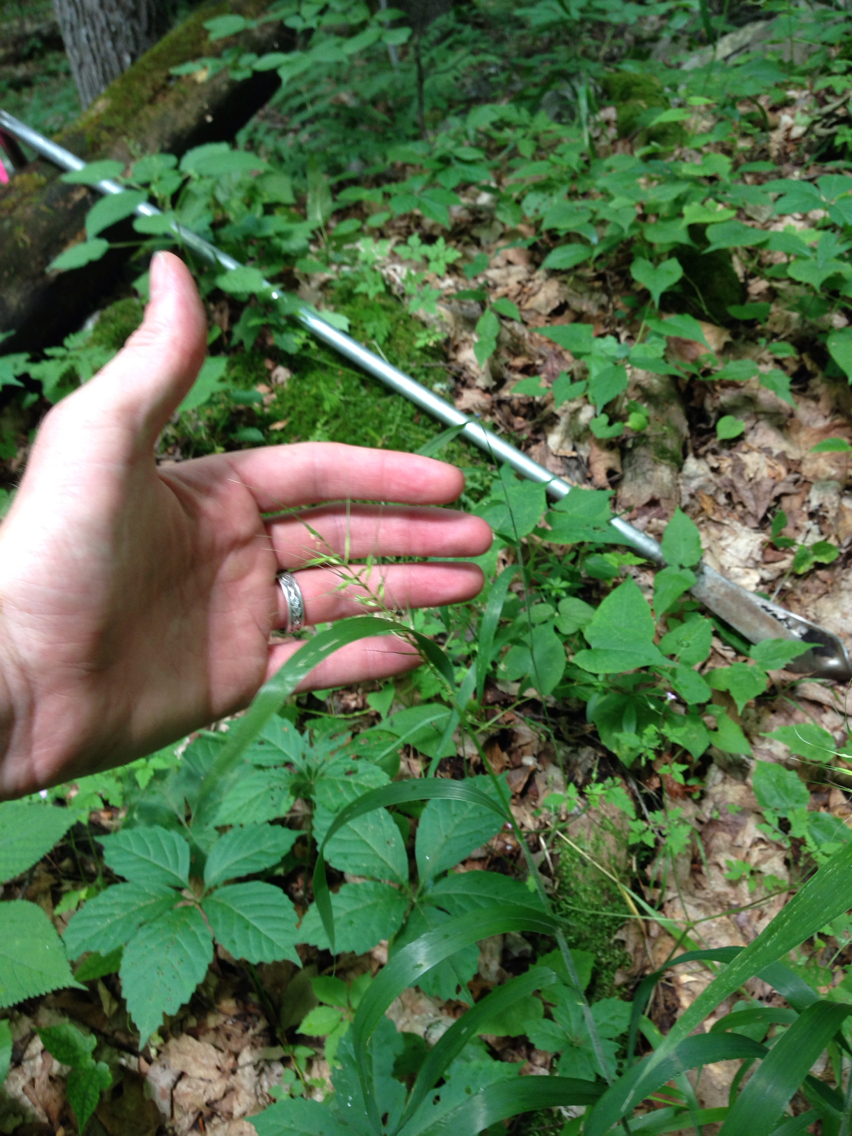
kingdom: Plantae
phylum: Tracheophyta
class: Liliopsida
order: Poales
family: Poaceae
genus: Elymus
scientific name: Elymus hystrix
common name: Bottlebrush grass
